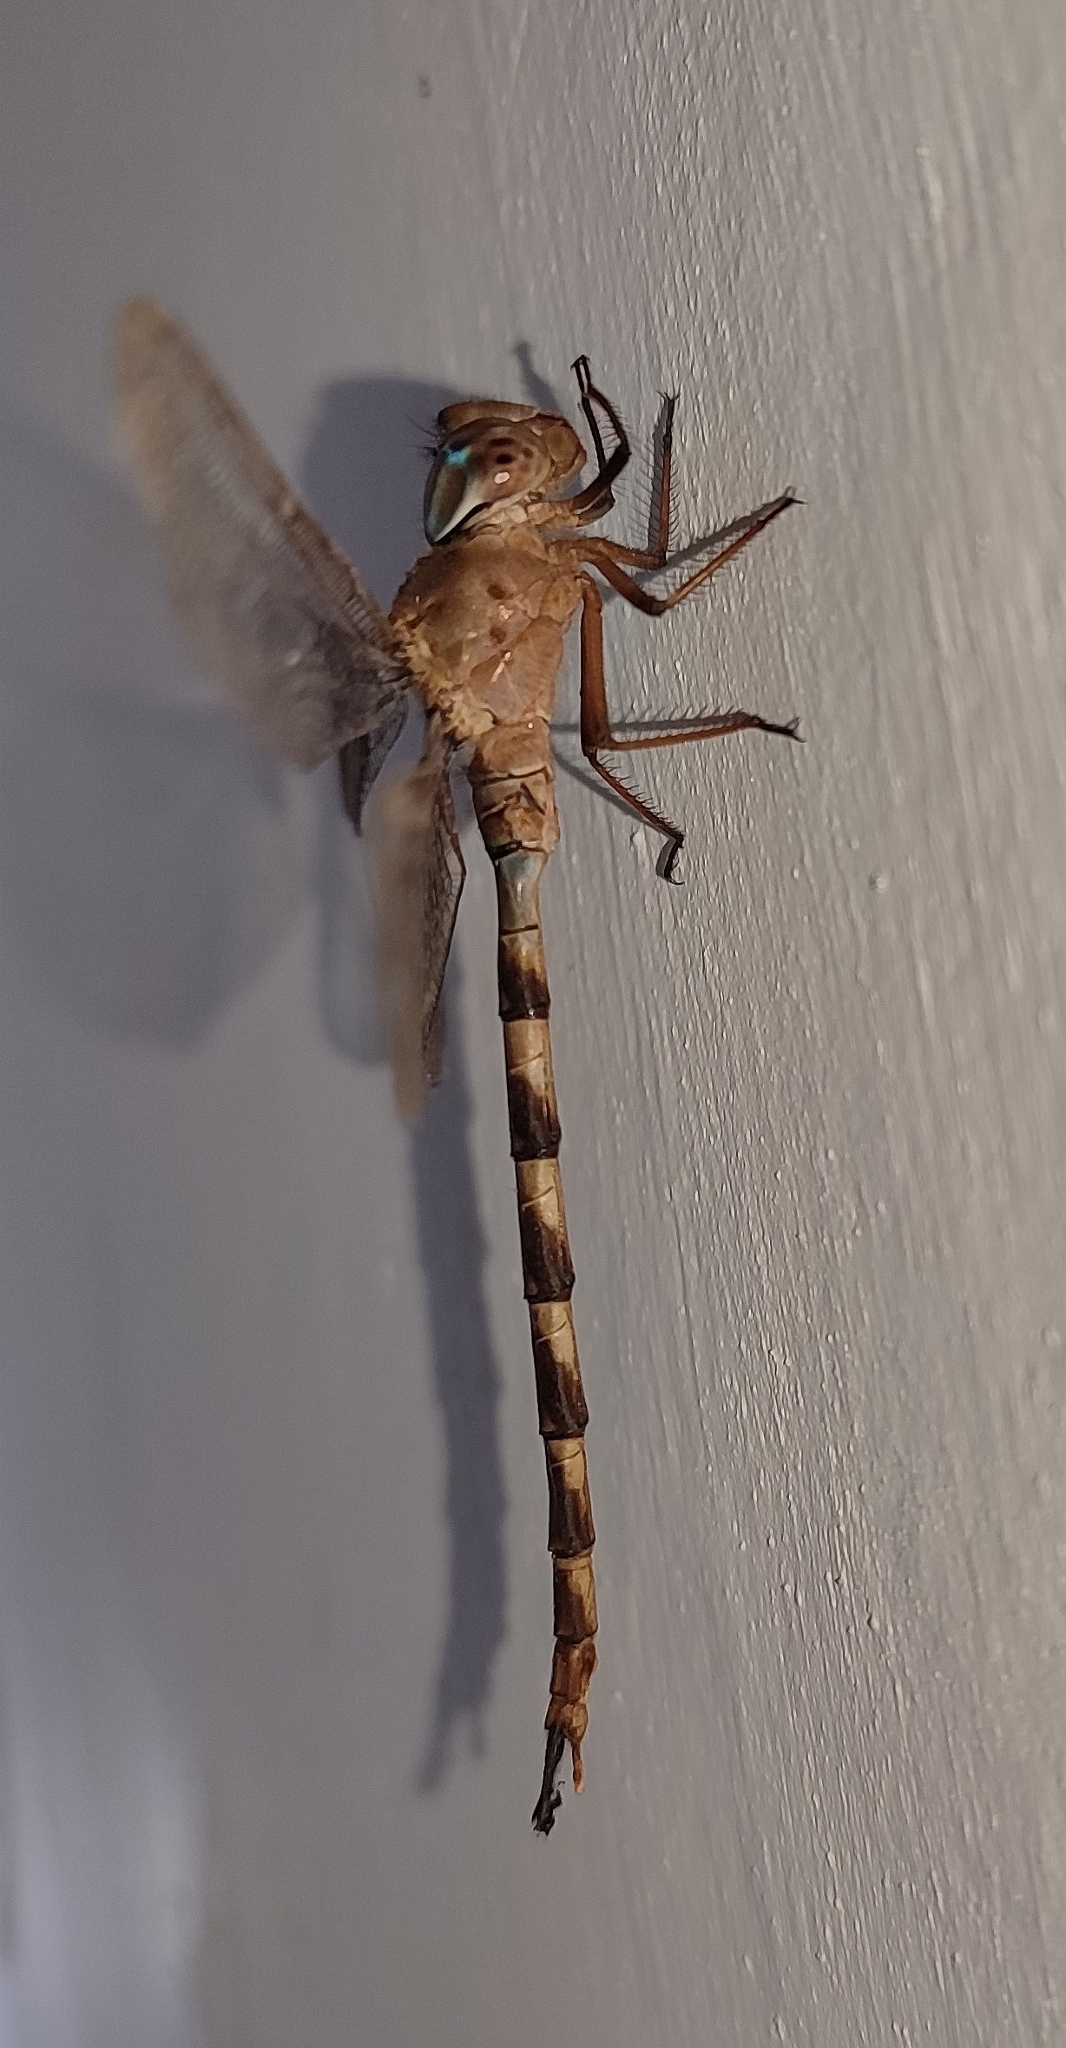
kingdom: Animalia
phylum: Arthropoda
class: Insecta
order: Odonata
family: Aeshnidae
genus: Gynacantha
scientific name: Gynacantha dravida
